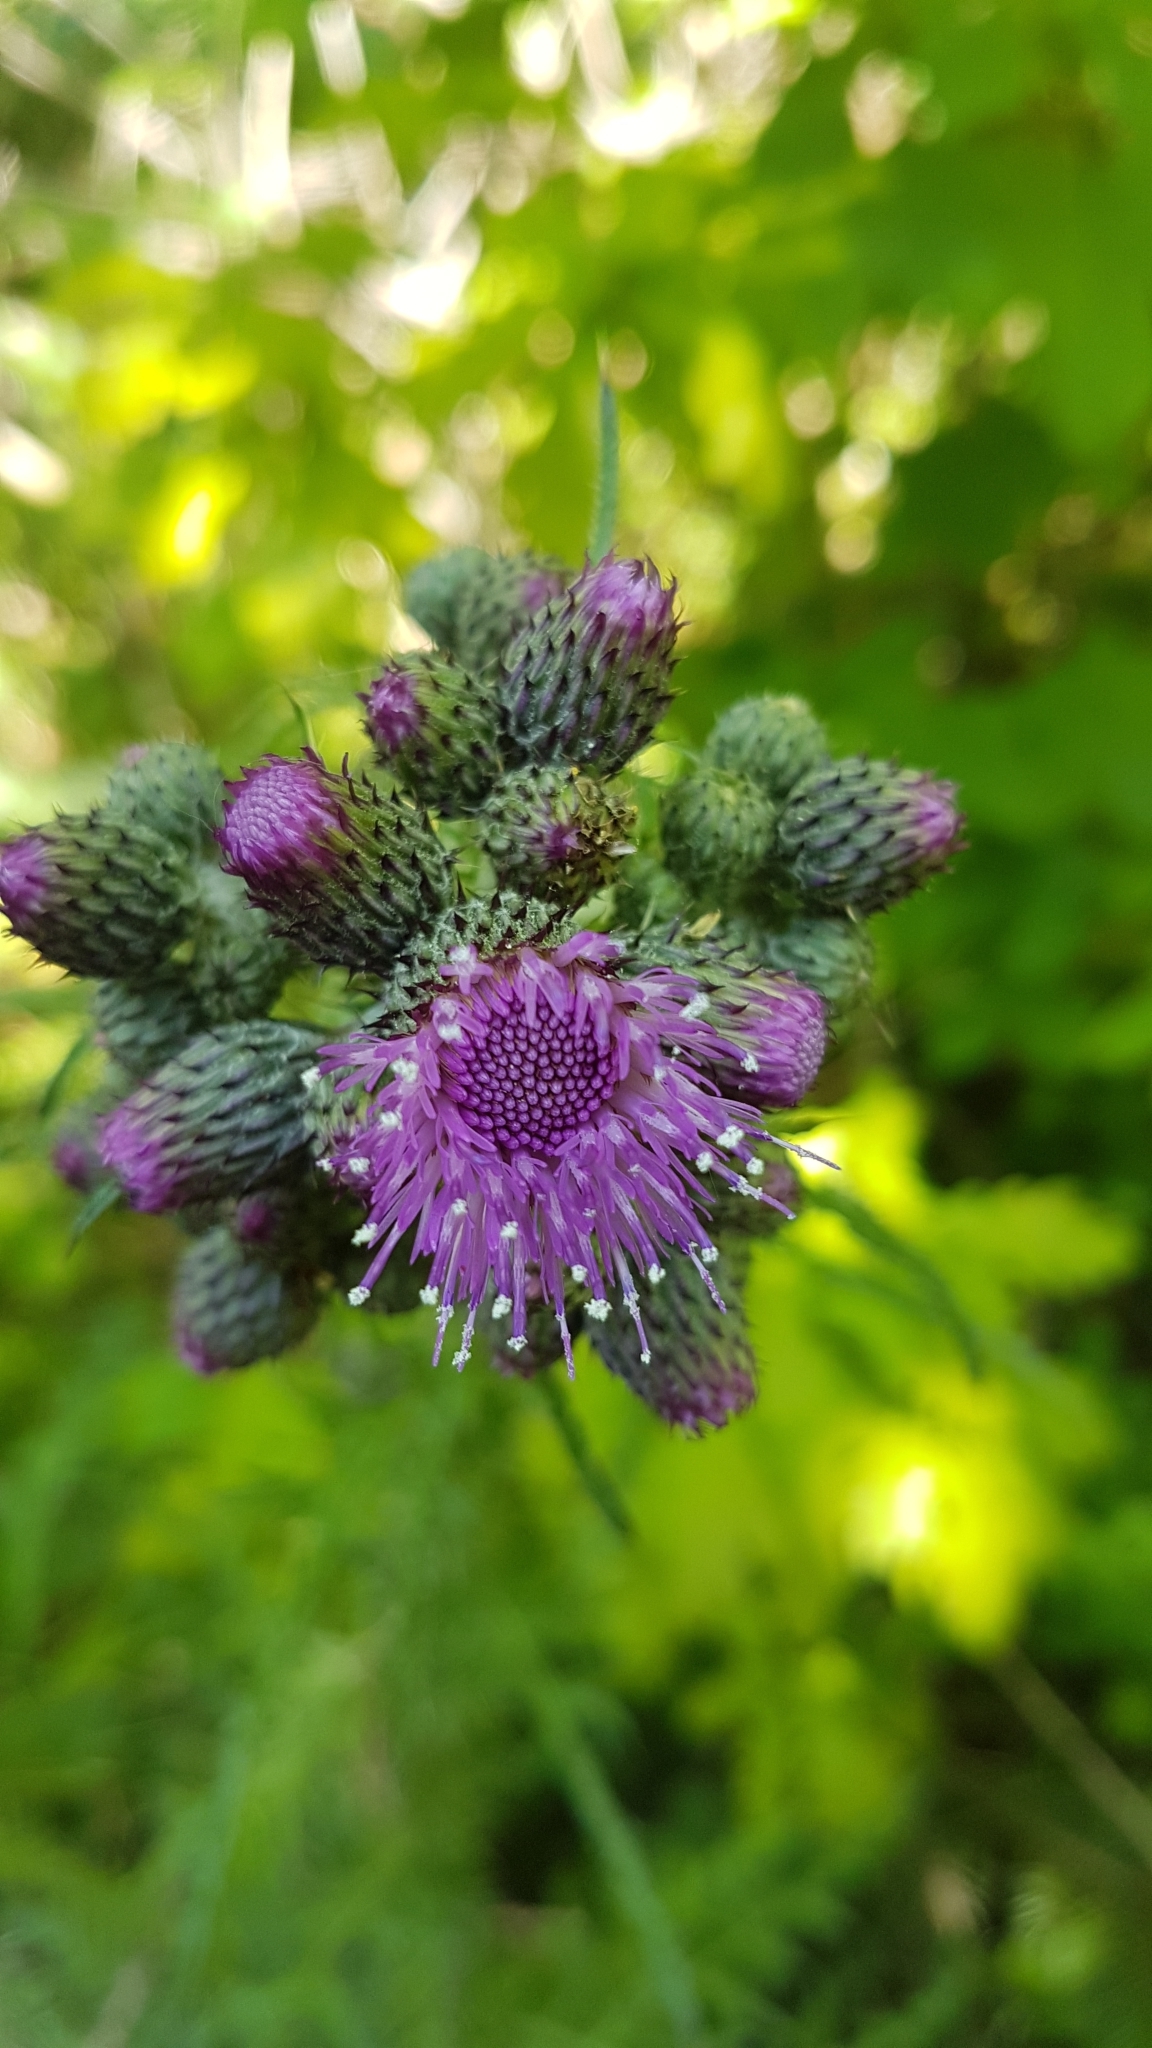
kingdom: Plantae
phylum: Tracheophyta
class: Magnoliopsida
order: Asterales
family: Asteraceae
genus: Cirsium
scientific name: Cirsium palustre
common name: Marsh thistle
